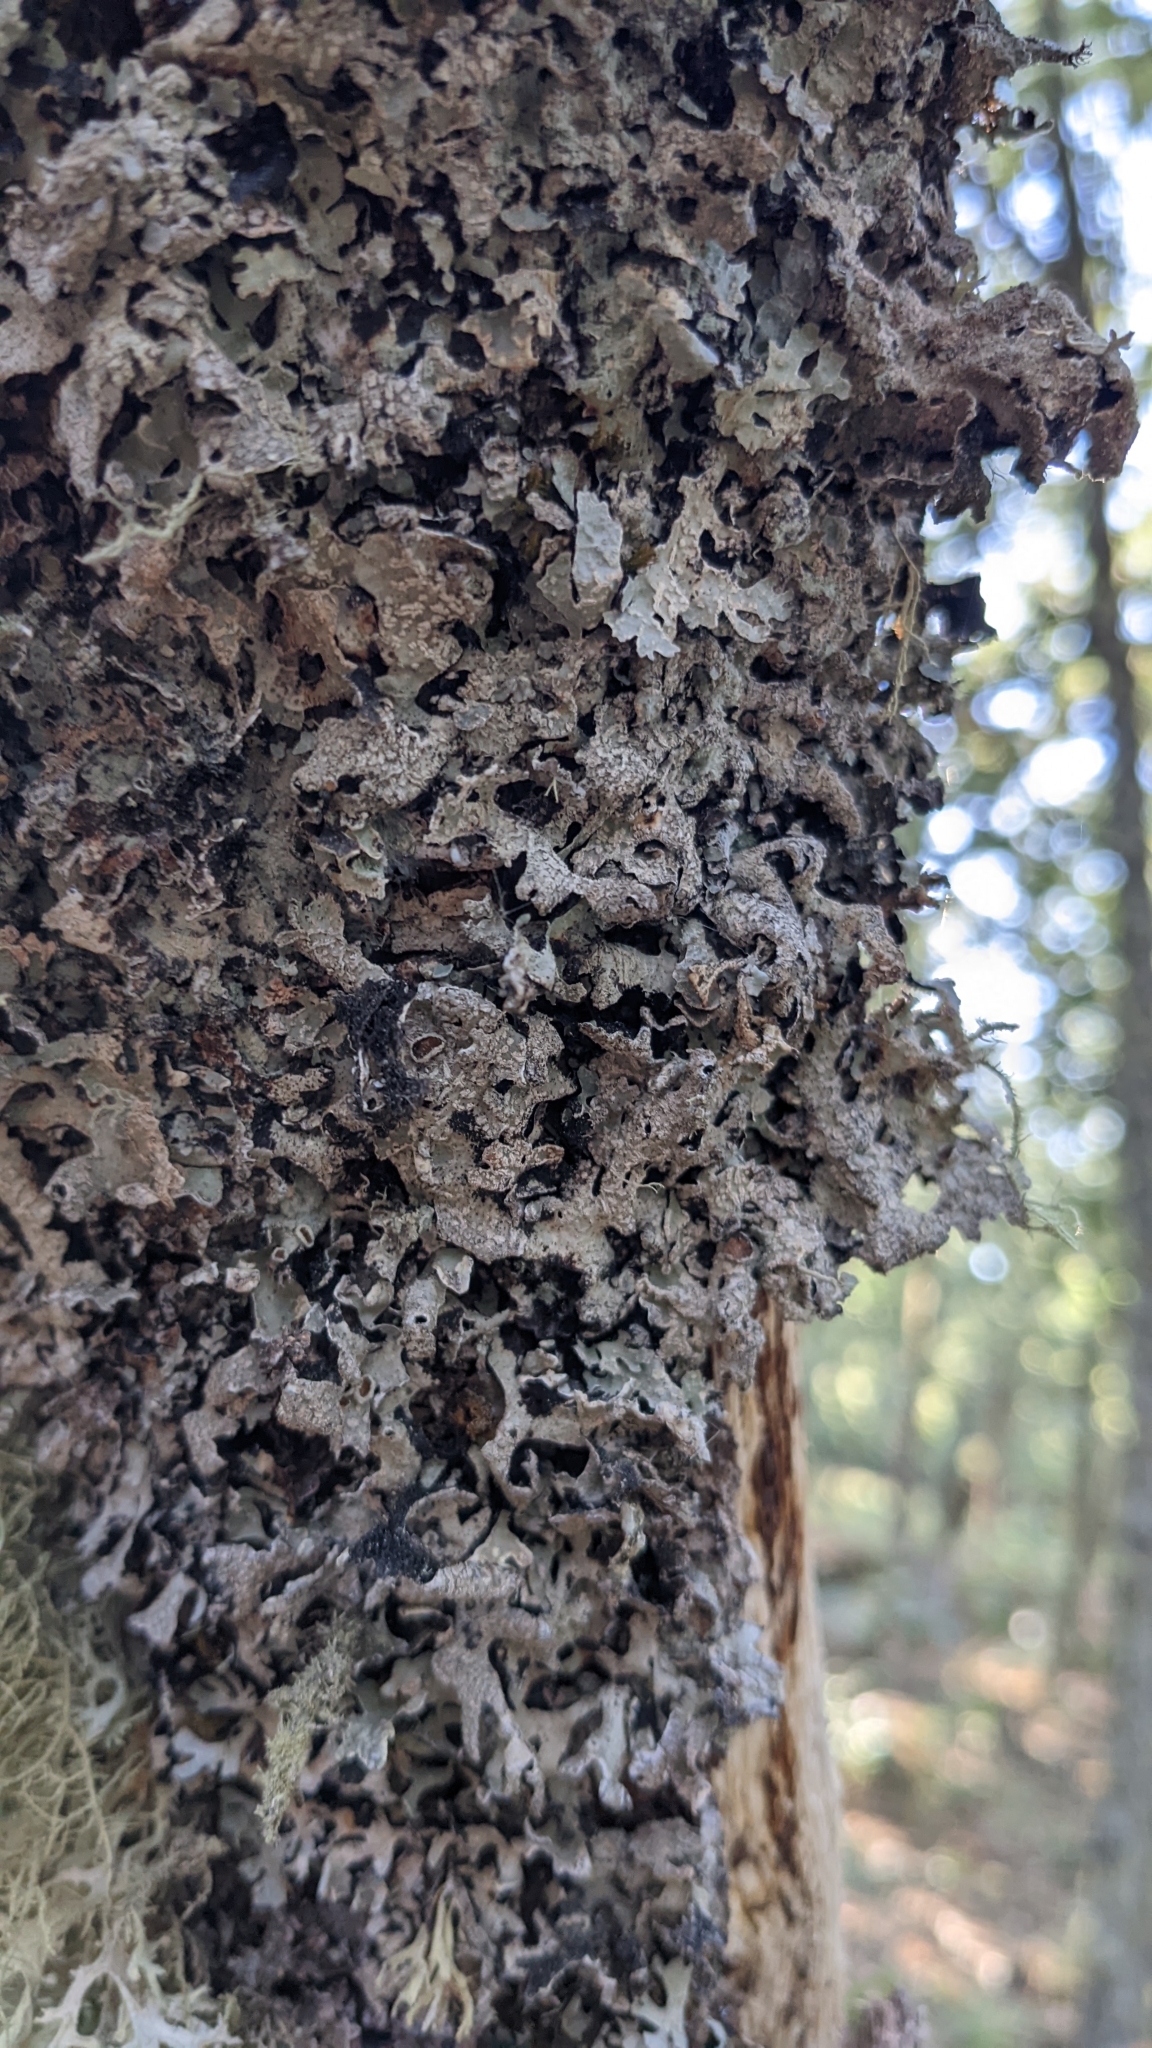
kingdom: Fungi
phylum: Ascomycota
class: Lecanoromycetes
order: Lecanorales
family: Parmeliaceae
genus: Parmelia
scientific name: Parmelia sulcata
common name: Netted shield lichen
